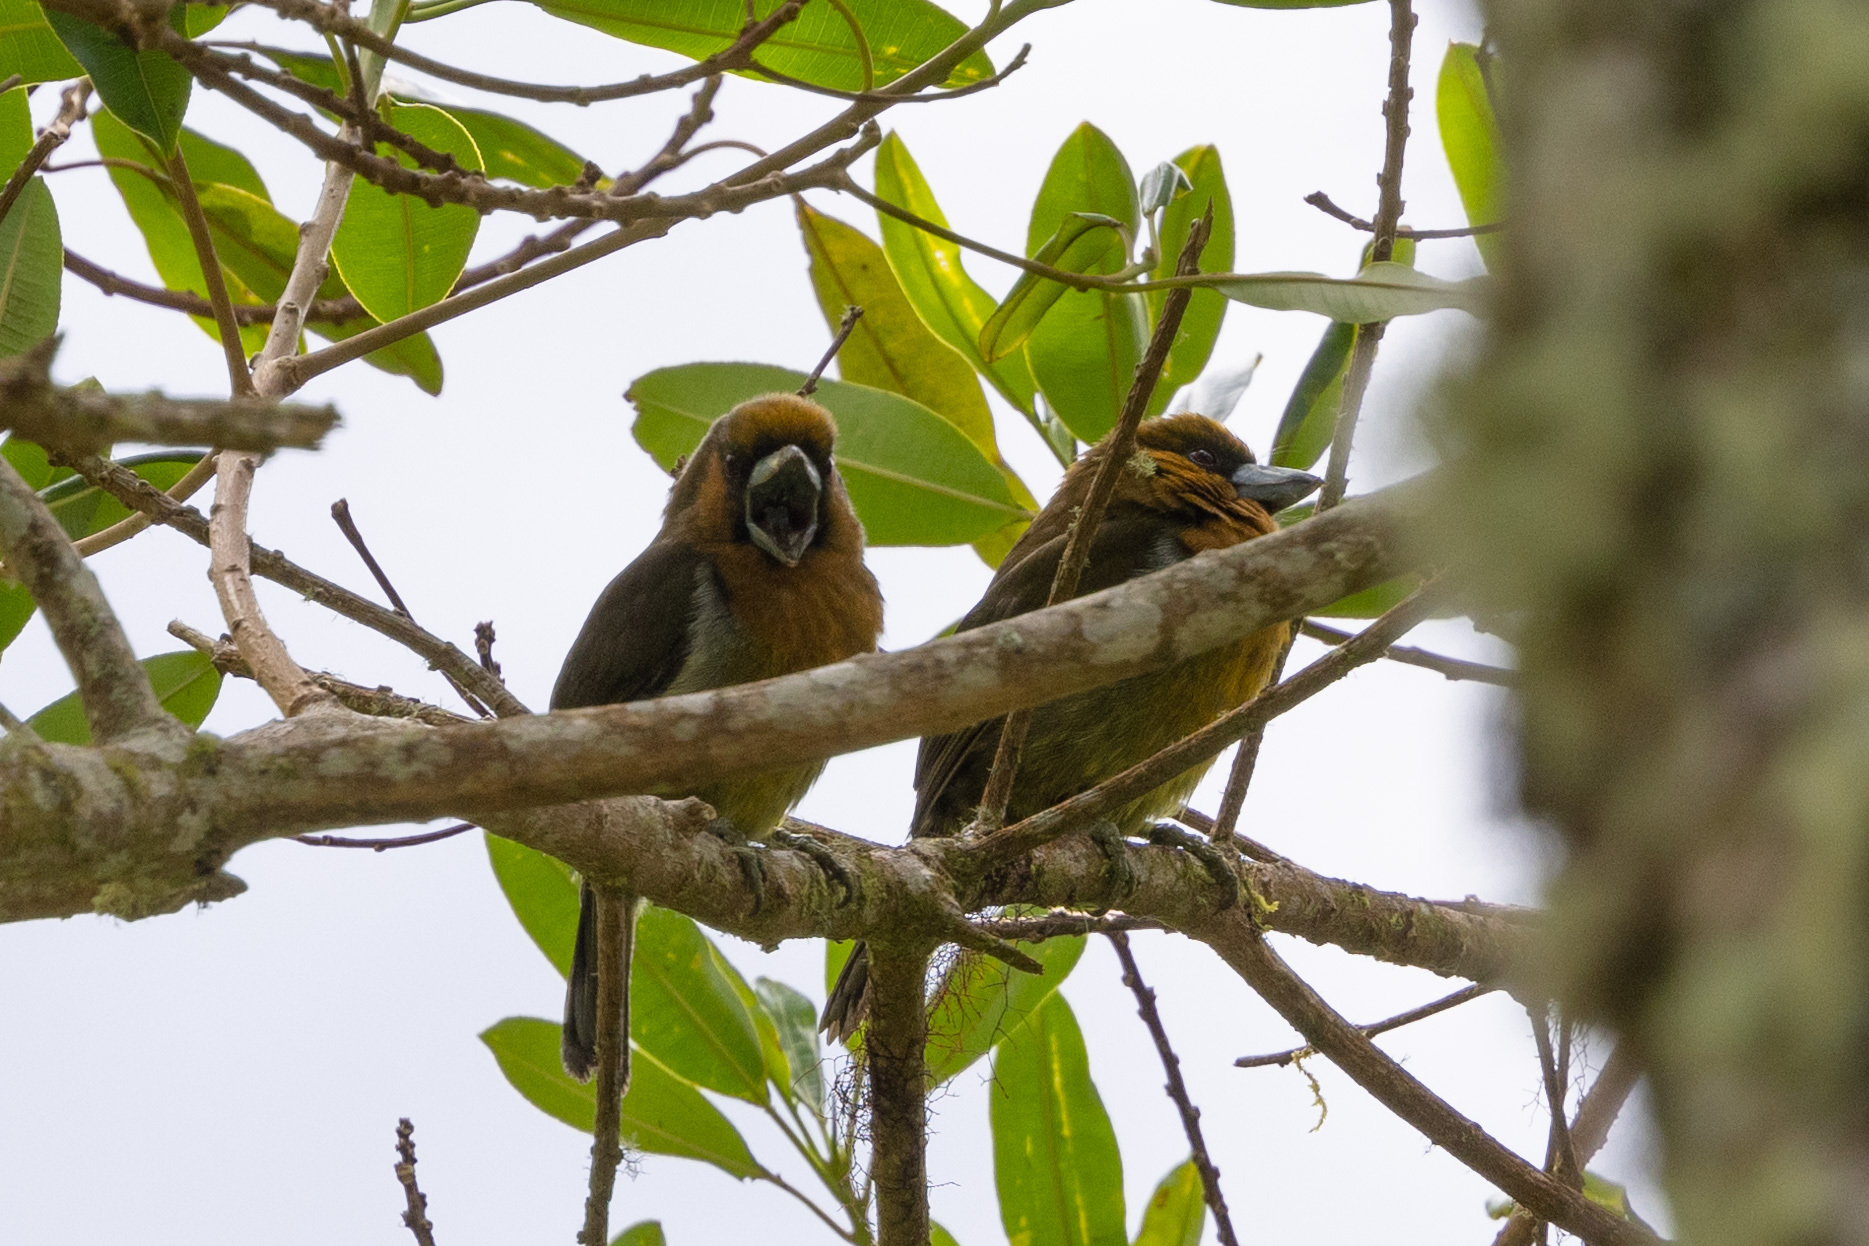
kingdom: Animalia
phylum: Chordata
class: Aves
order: Piciformes
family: Semnornithidae
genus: Semnornis
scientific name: Semnornis frantzii
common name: Prong-billed barbet
